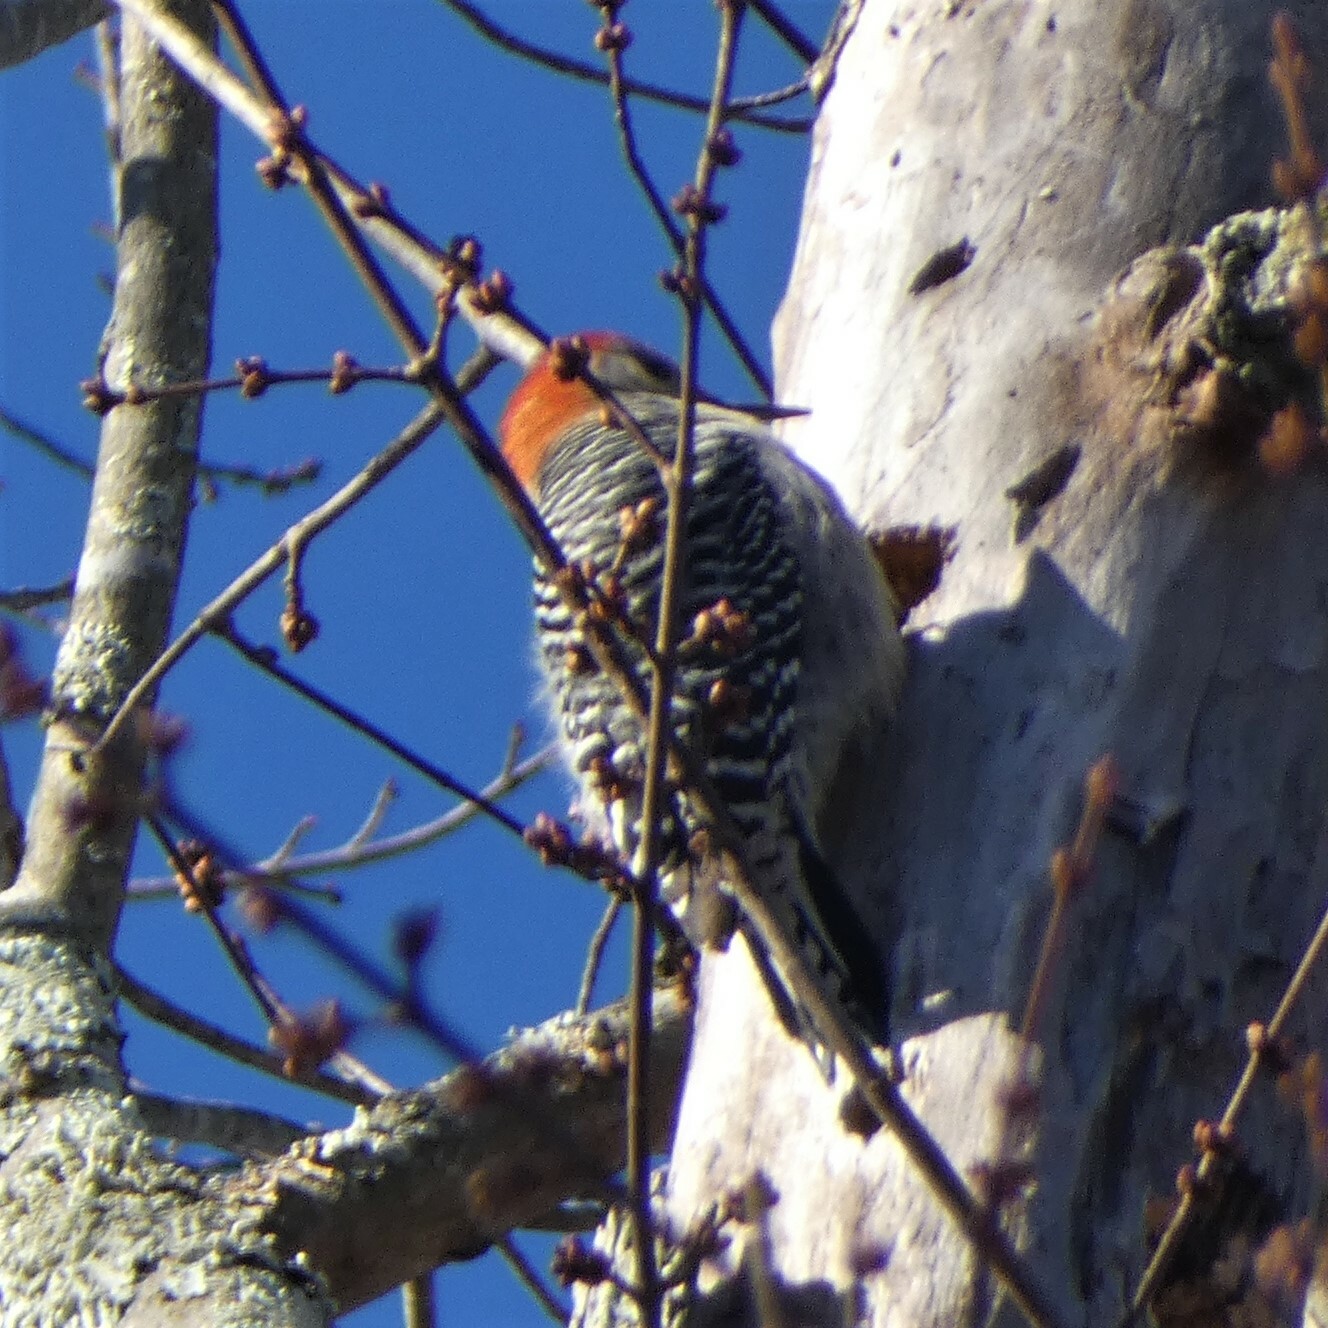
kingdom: Animalia
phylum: Chordata
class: Aves
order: Piciformes
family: Picidae
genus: Melanerpes
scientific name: Melanerpes carolinus
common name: Red-bellied woodpecker
